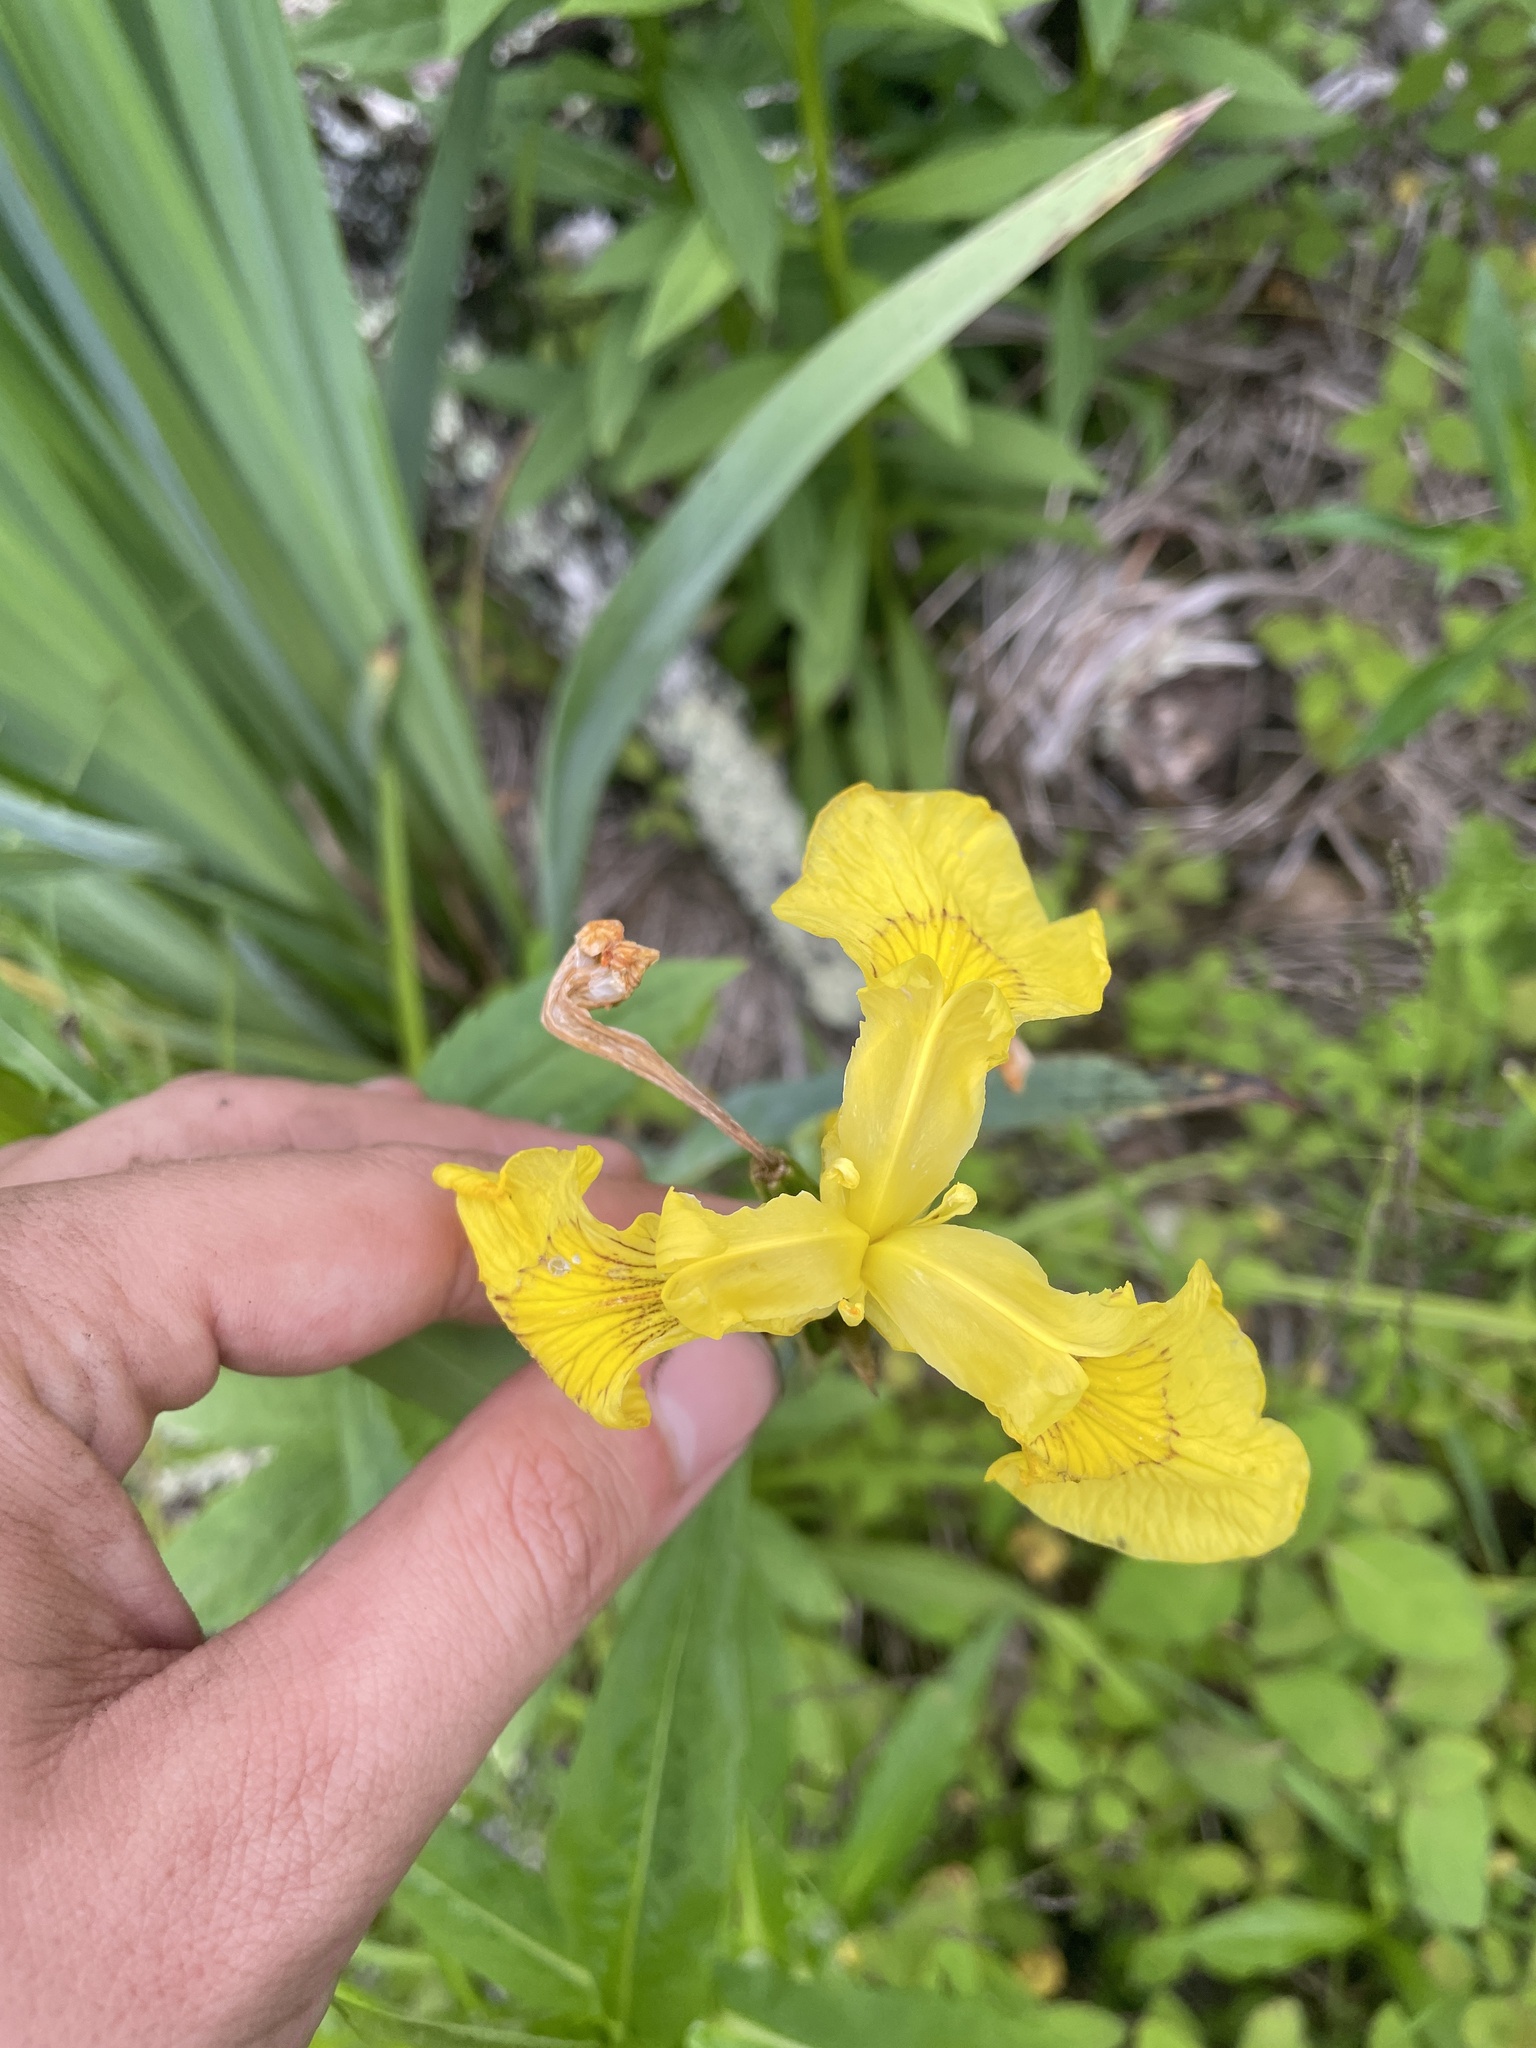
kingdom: Plantae
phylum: Tracheophyta
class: Liliopsida
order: Asparagales
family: Iridaceae
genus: Iris
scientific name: Iris pseudacorus
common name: Yellow flag
